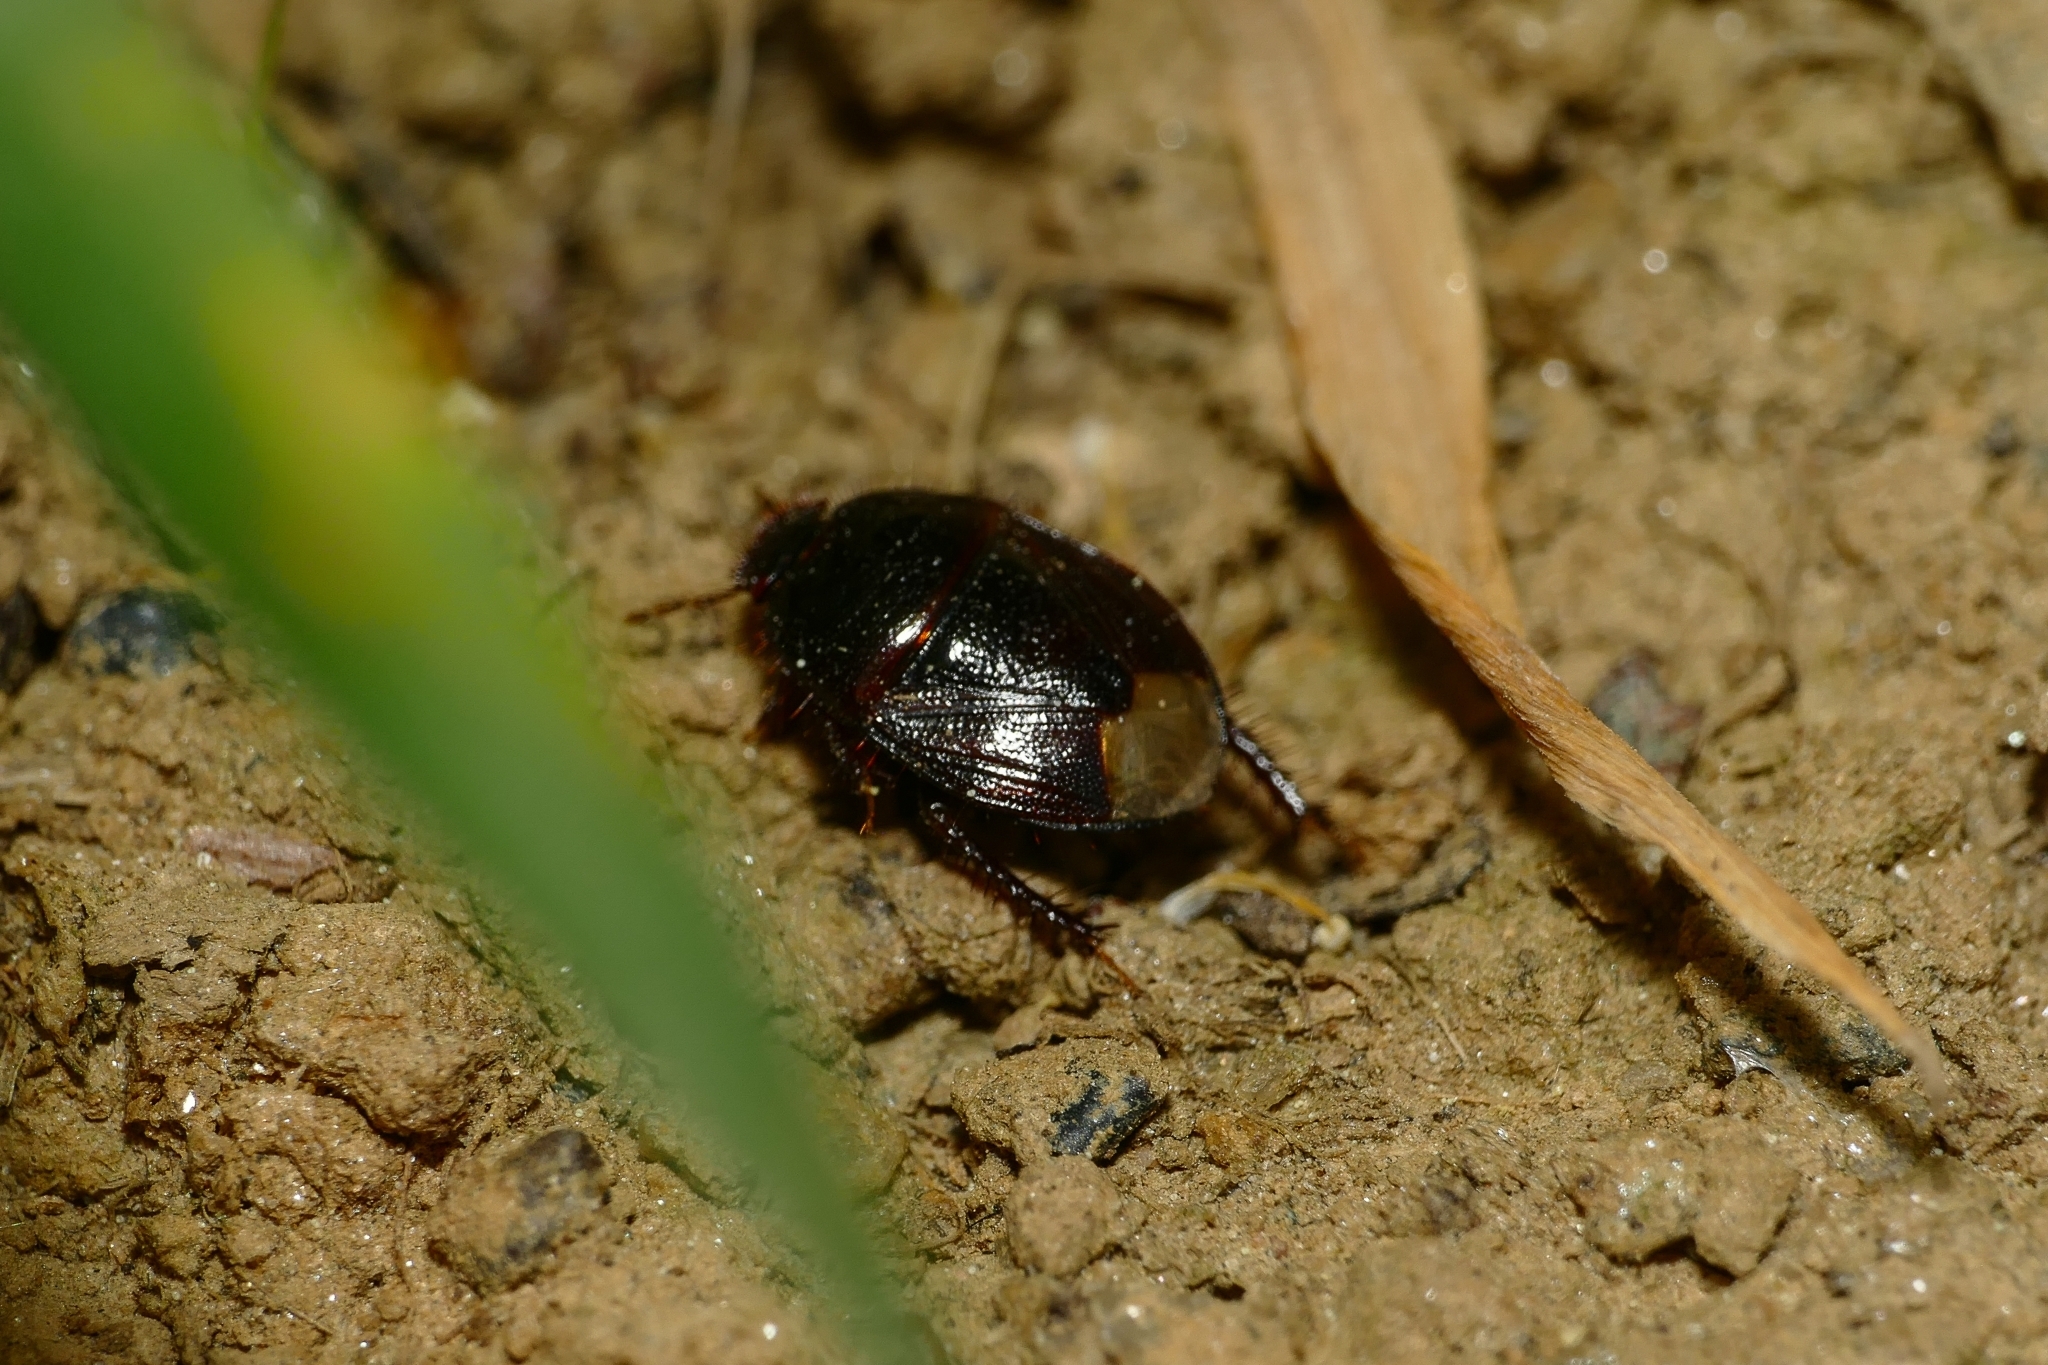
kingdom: Animalia
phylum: Arthropoda
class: Insecta
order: Hemiptera
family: Cydnidae
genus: Microporus
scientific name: Microporus nigrita
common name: Burrower bug
